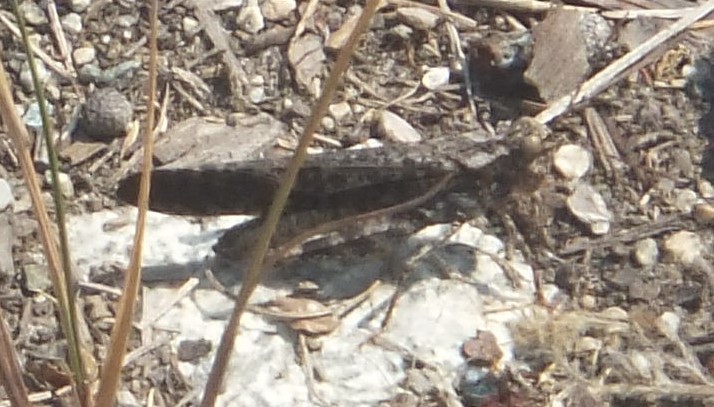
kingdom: Animalia
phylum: Arthropoda
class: Insecta
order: Orthoptera
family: Acrididae
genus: Trimerotropis
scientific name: Trimerotropis verruculata
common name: Crackling forest grasshopper
